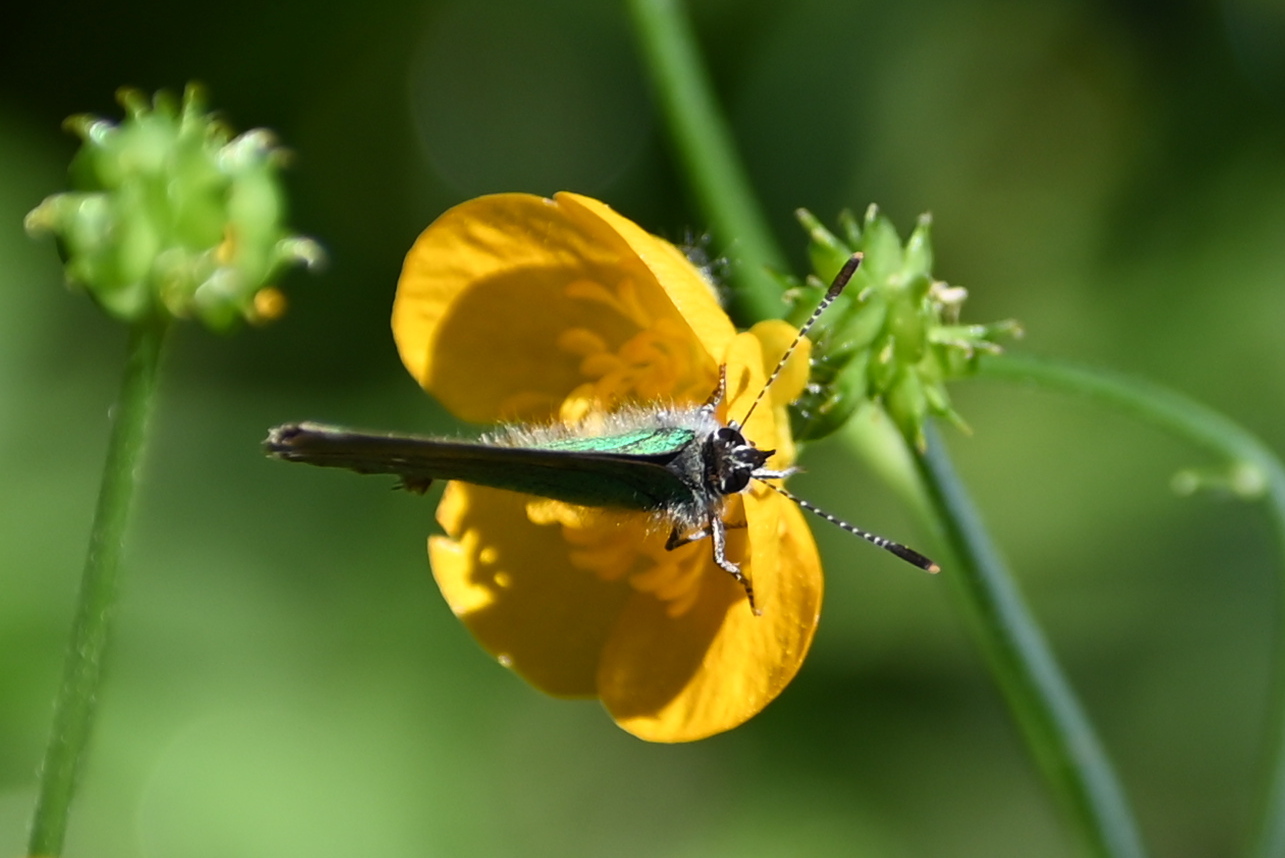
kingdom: Animalia
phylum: Arthropoda
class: Insecta
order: Lepidoptera
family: Lycaenidae
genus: Callophrys
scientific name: Callophrys rubi
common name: Green hairstreak
